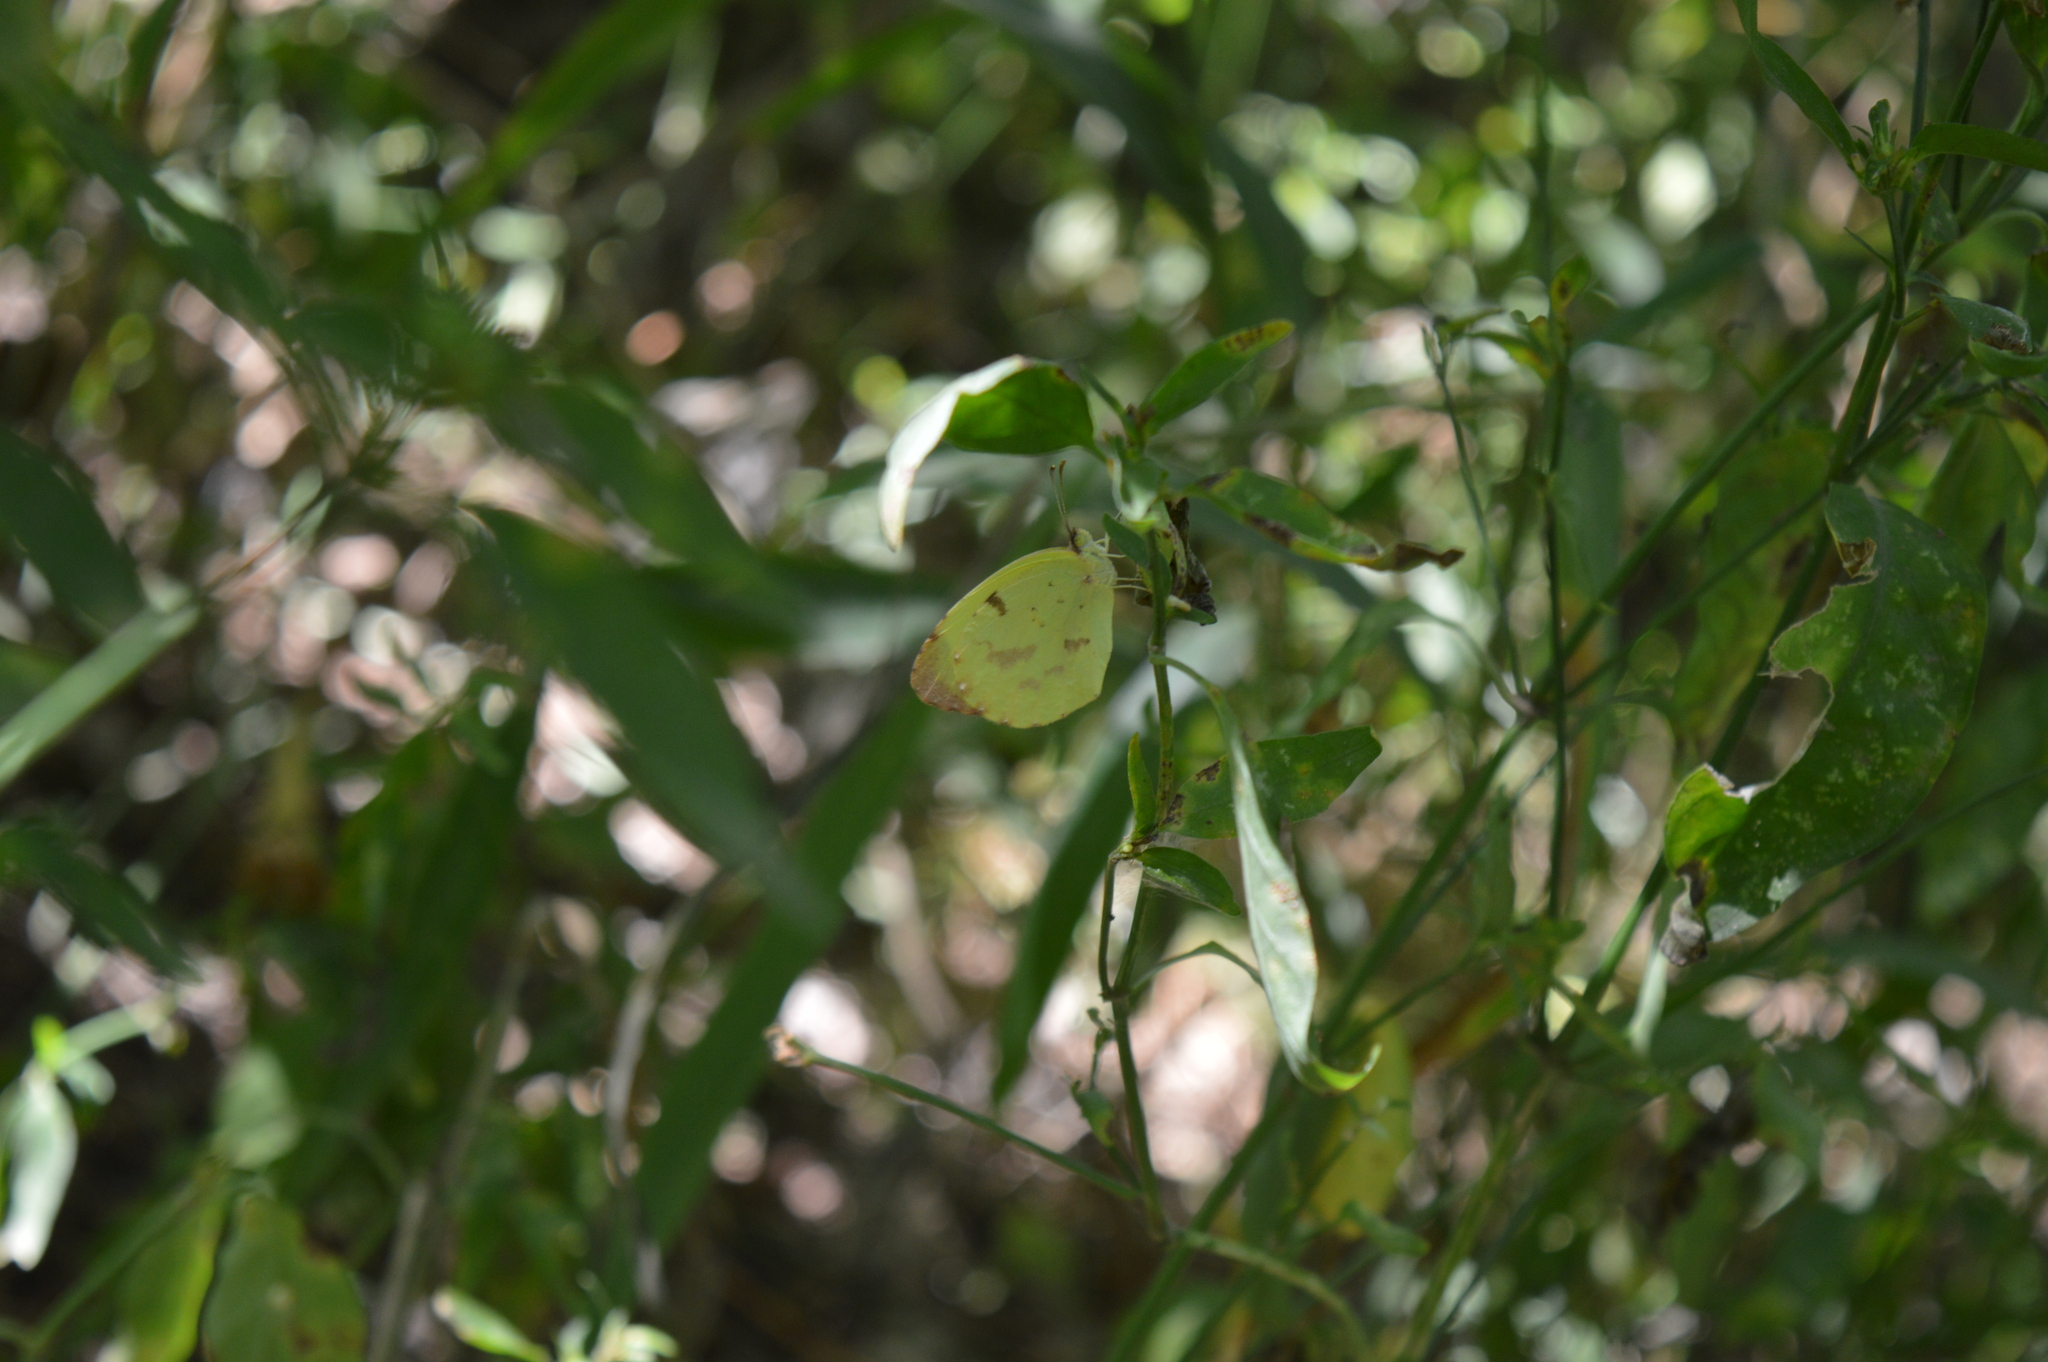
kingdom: Animalia
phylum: Arthropoda
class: Insecta
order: Lepidoptera
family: Pieridae
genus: Teriocolias
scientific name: Teriocolias
